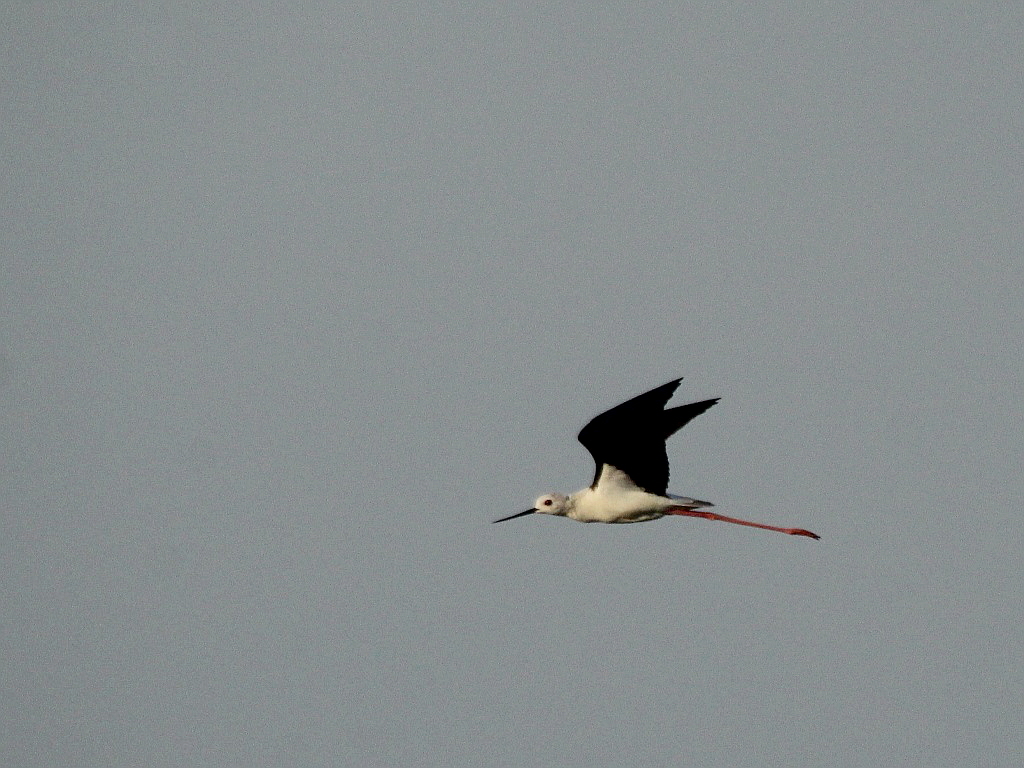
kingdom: Animalia
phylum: Chordata
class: Aves
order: Charadriiformes
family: Recurvirostridae
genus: Himantopus
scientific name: Himantopus himantopus
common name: Black-winged stilt
